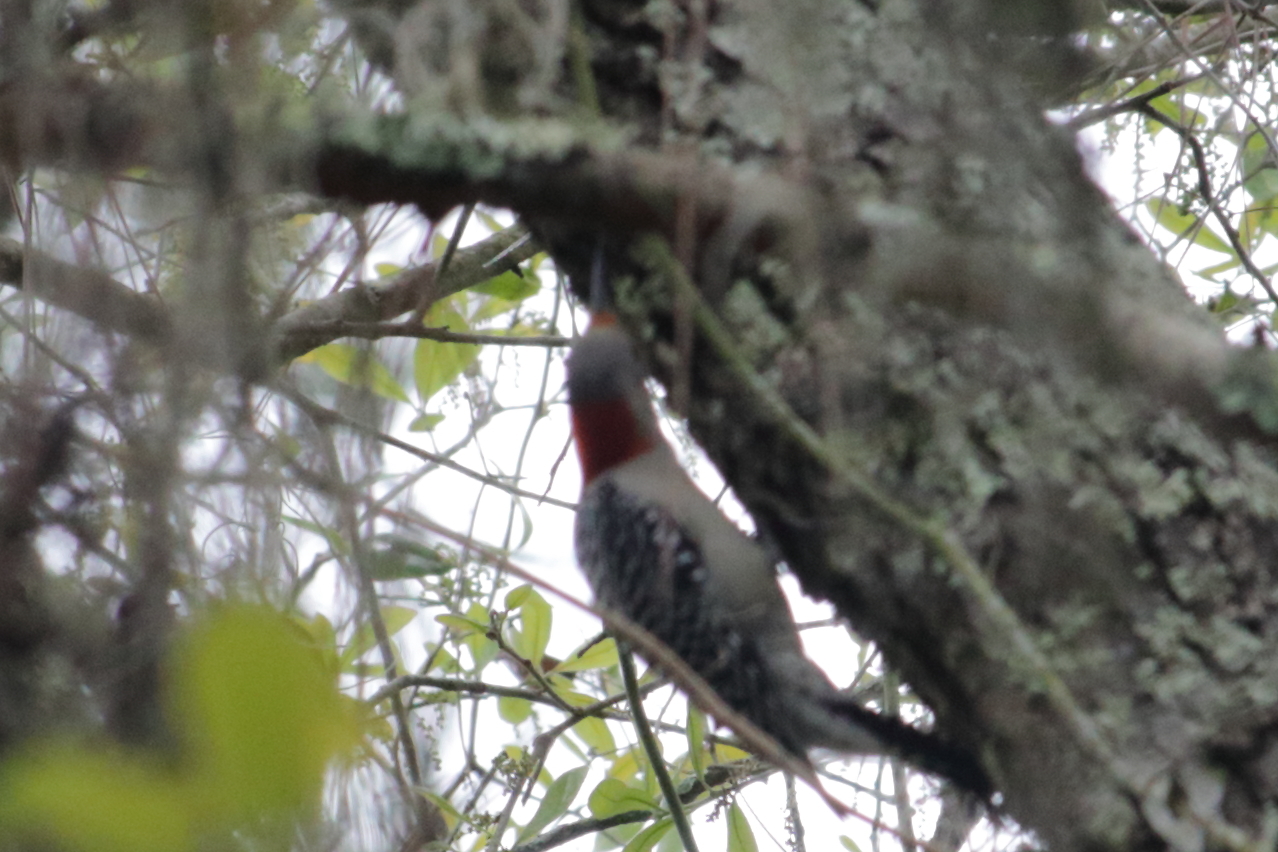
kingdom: Animalia
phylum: Chordata
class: Aves
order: Piciformes
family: Picidae
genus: Melanerpes
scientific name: Melanerpes carolinus
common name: Red-bellied woodpecker
